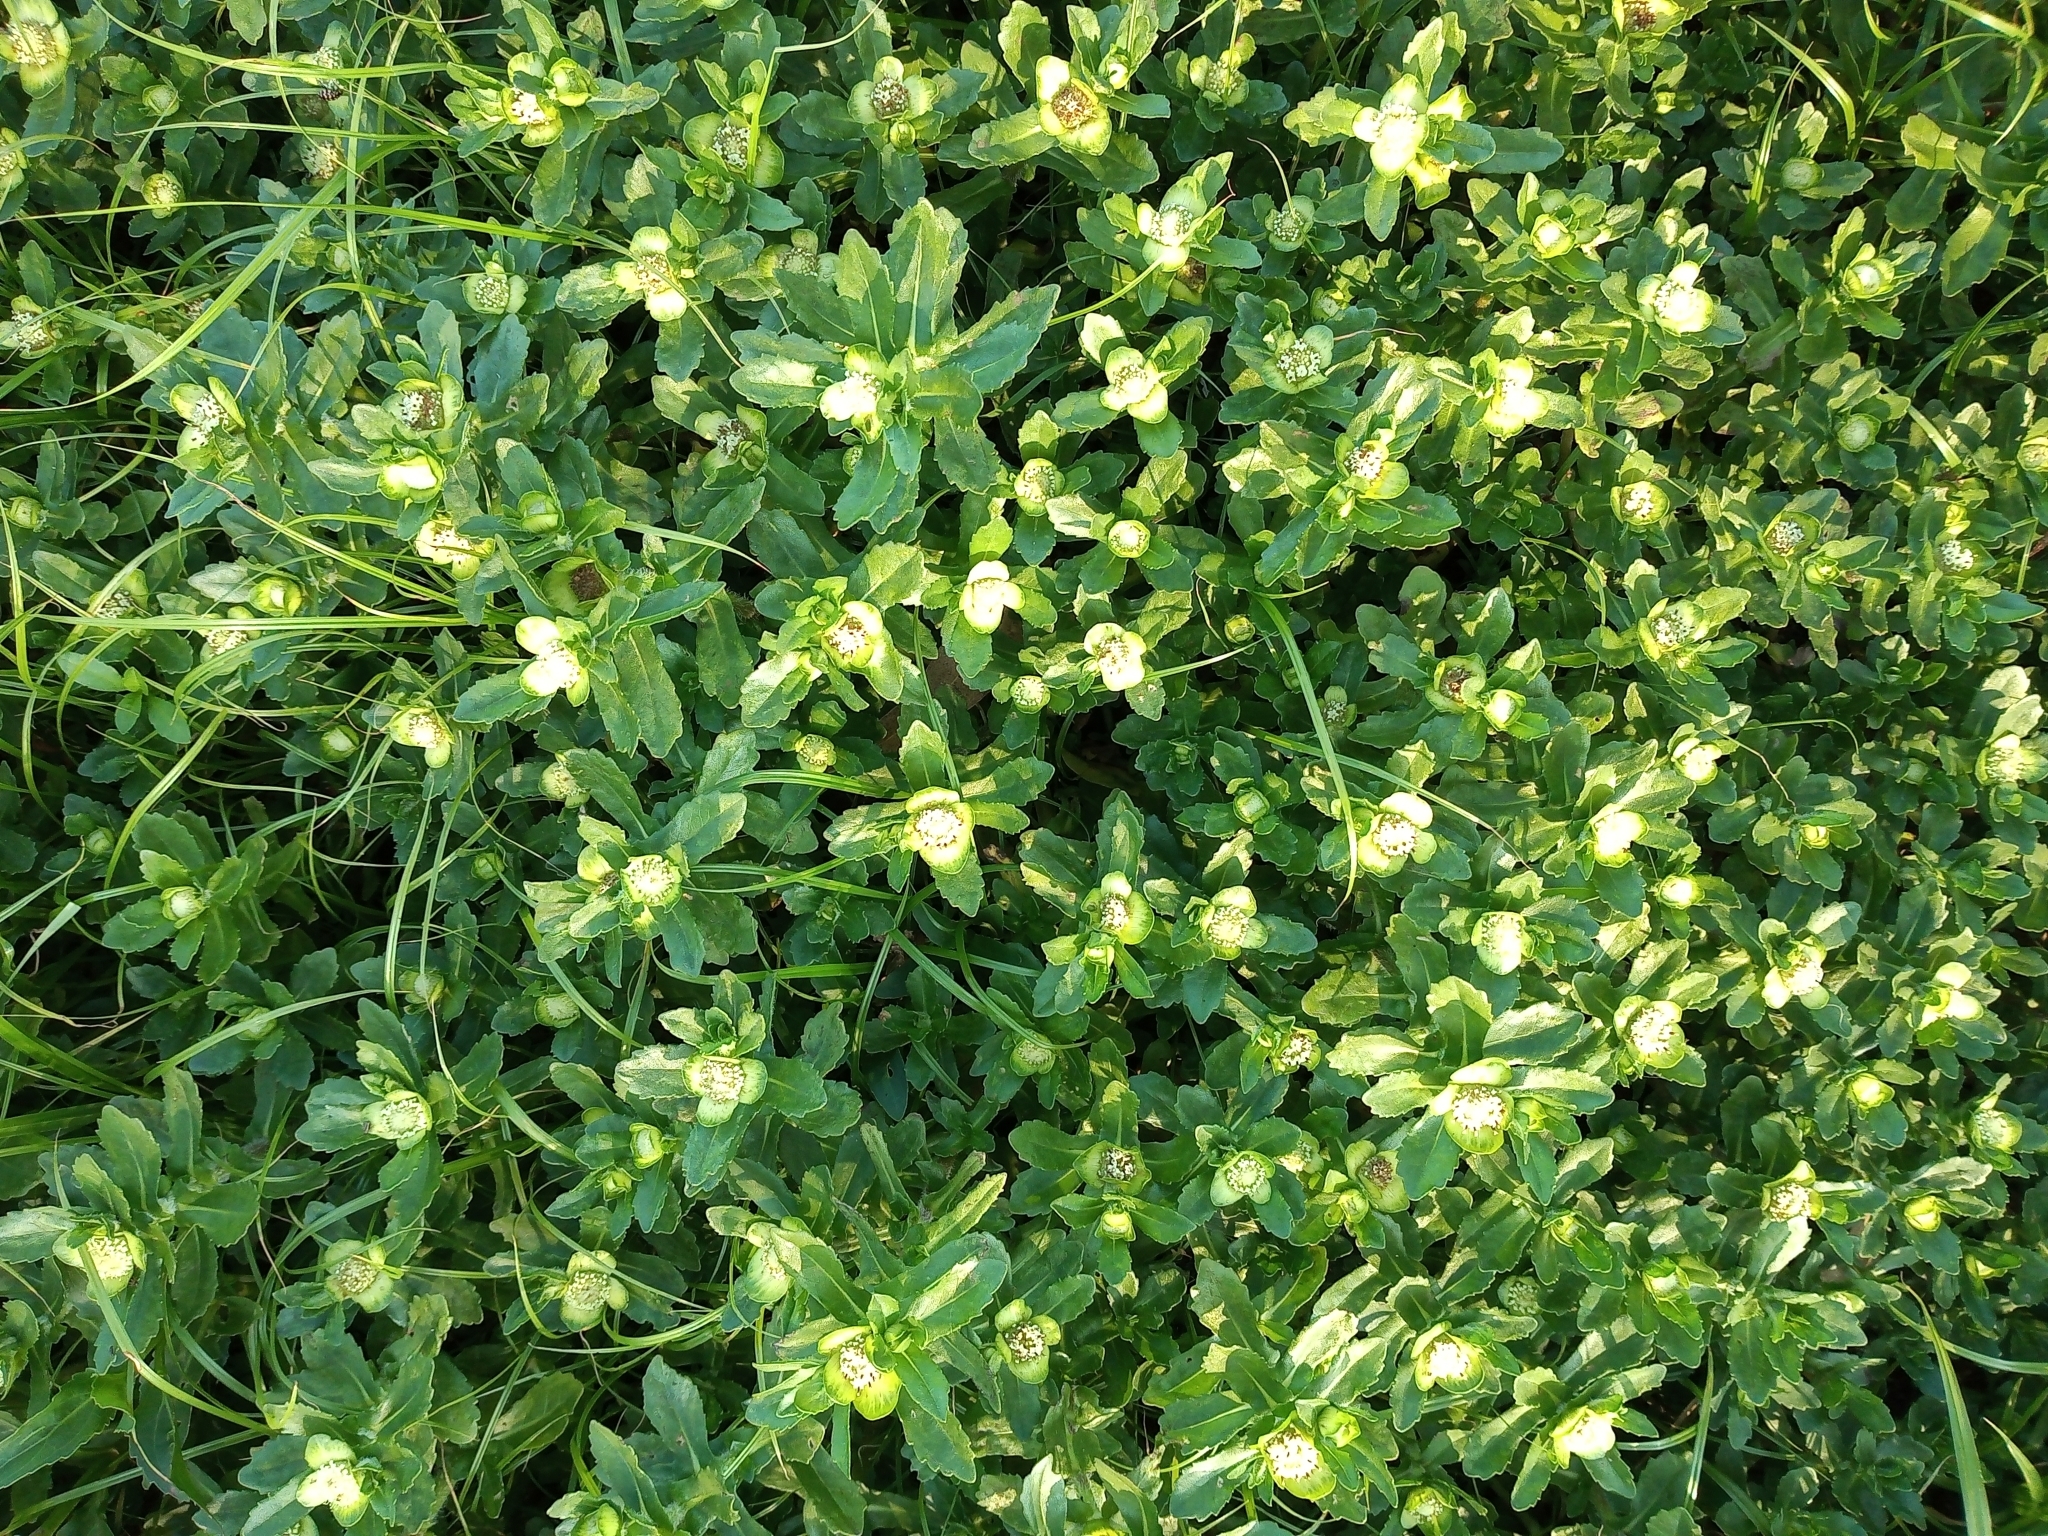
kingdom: Plantae
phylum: Tracheophyta
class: Magnoliopsida
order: Asterales
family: Asteraceae
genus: Enydra
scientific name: Enydra fluctuans
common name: Buffalo spinach
